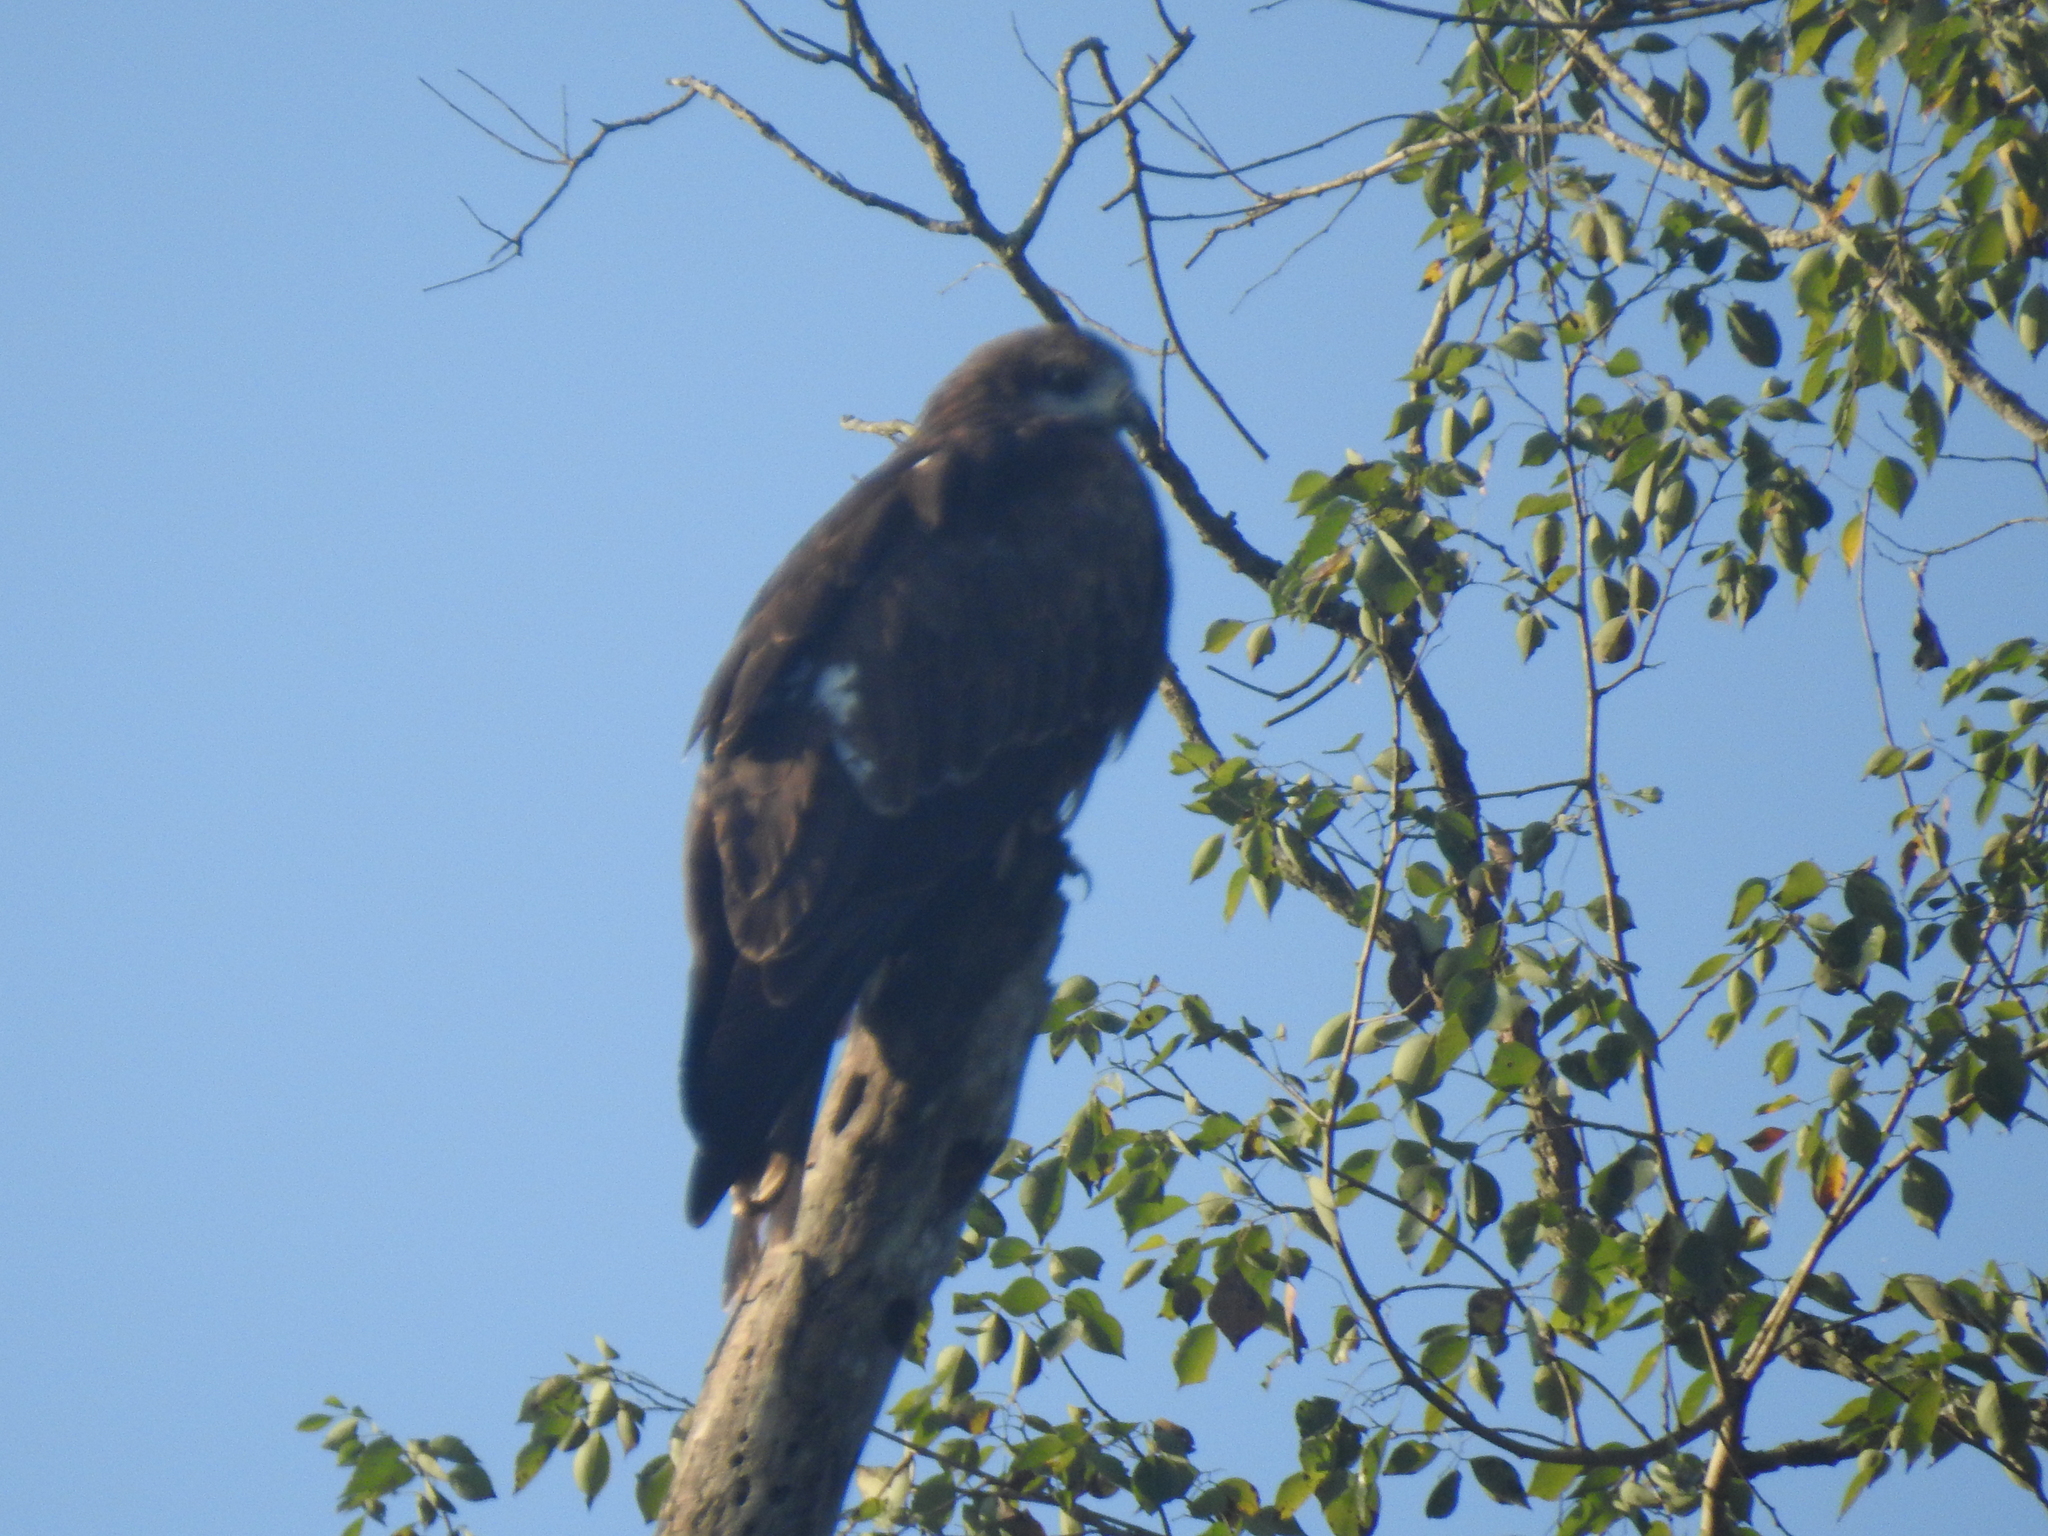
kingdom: Animalia
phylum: Chordata
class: Aves
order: Accipitriformes
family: Accipitridae
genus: Milvus
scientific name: Milvus migrans
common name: Black kite
